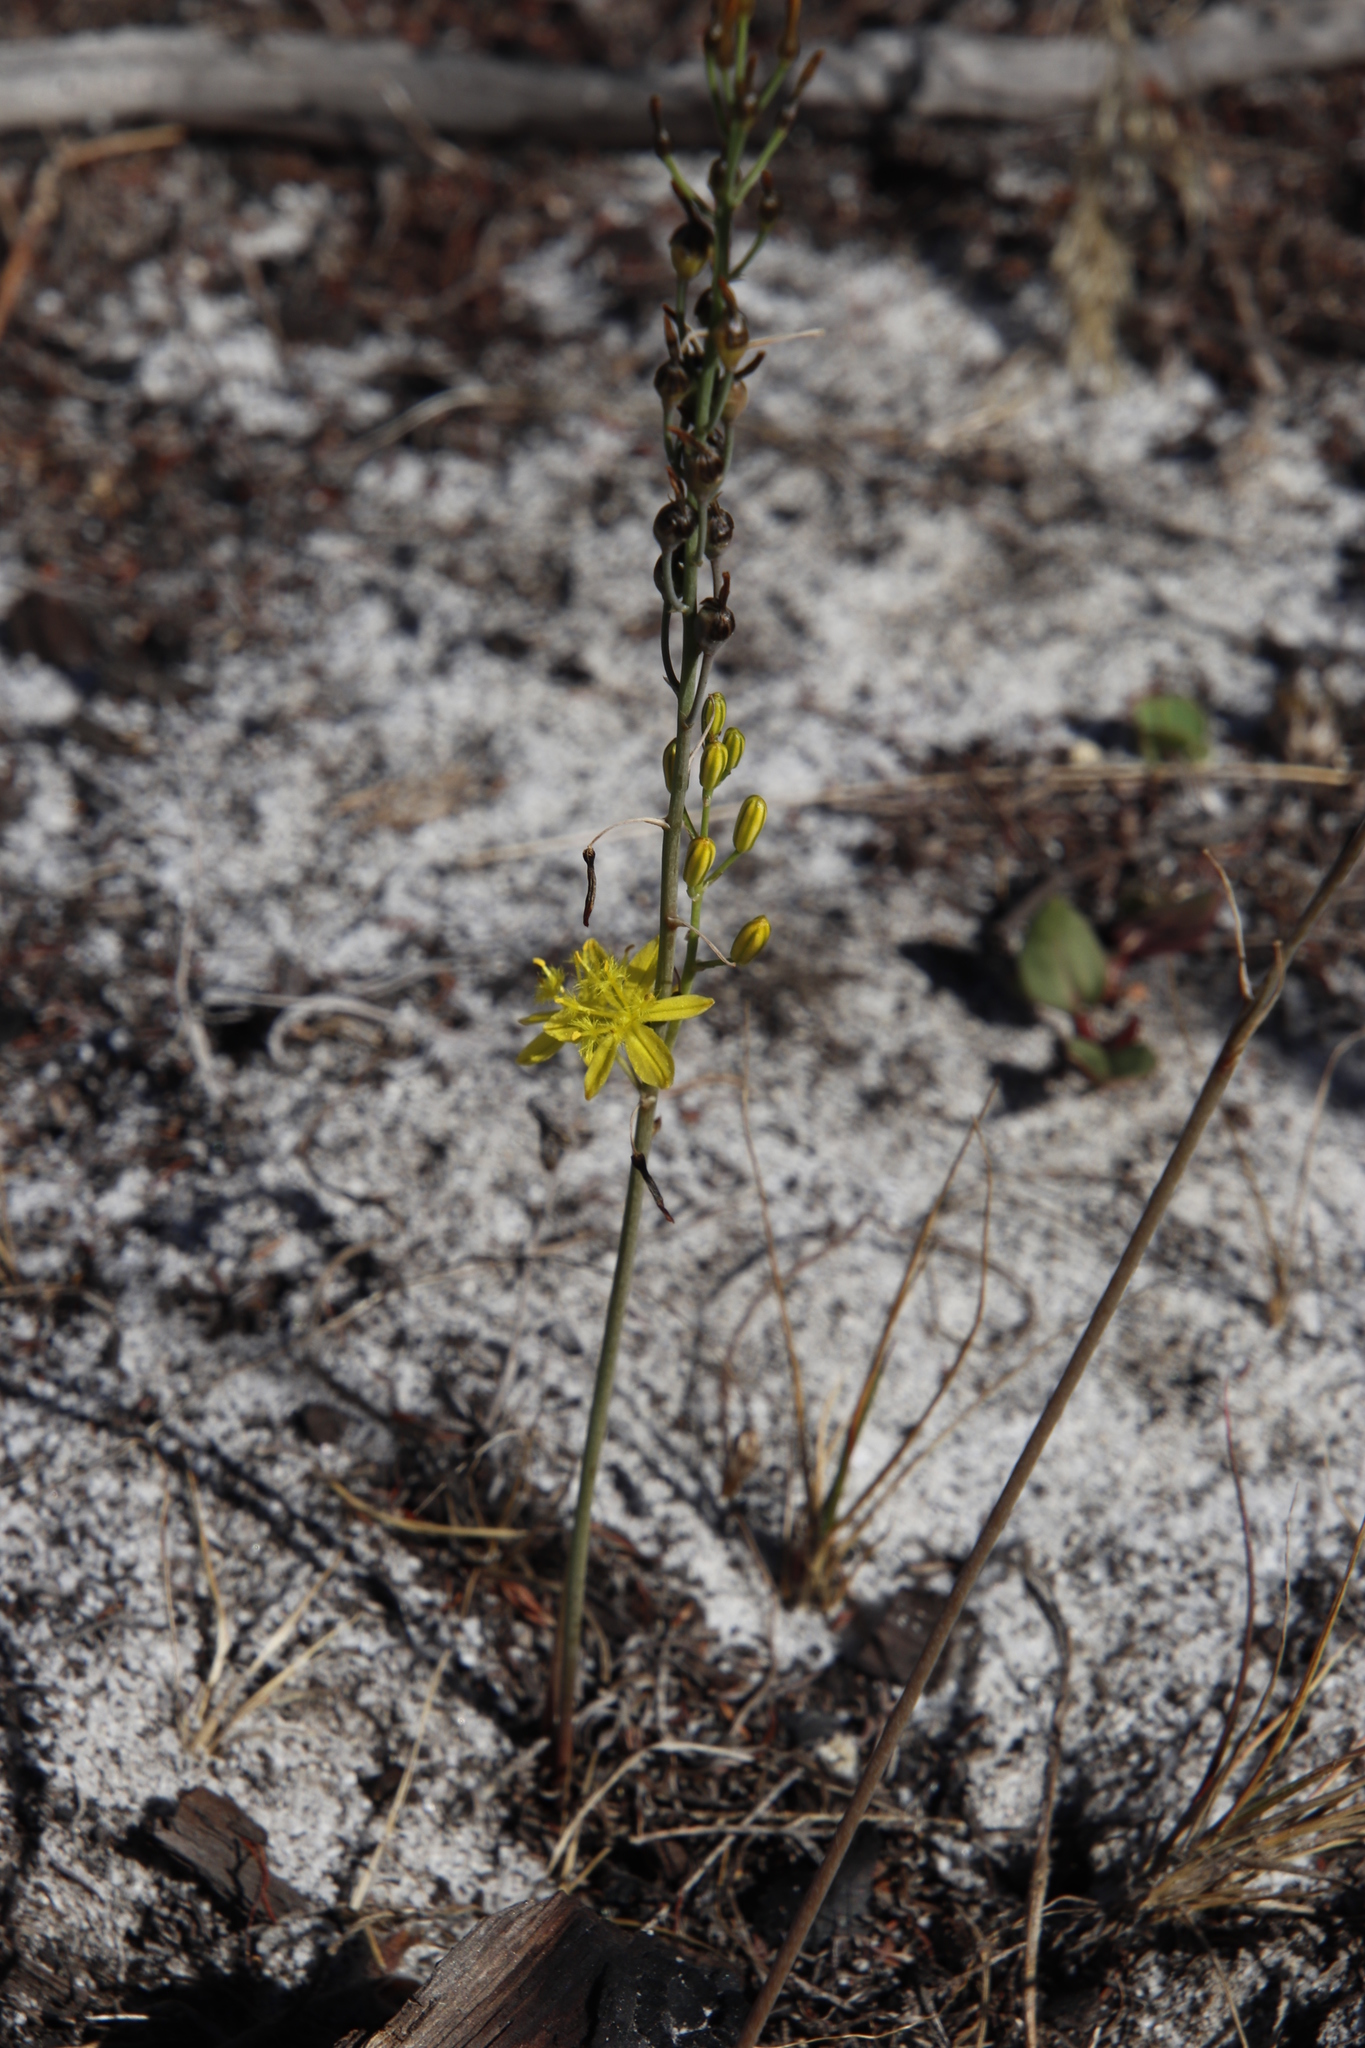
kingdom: Plantae
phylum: Tracheophyta
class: Liliopsida
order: Asparagales
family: Asphodelaceae
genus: Bulbine
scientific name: Bulbine favosa
